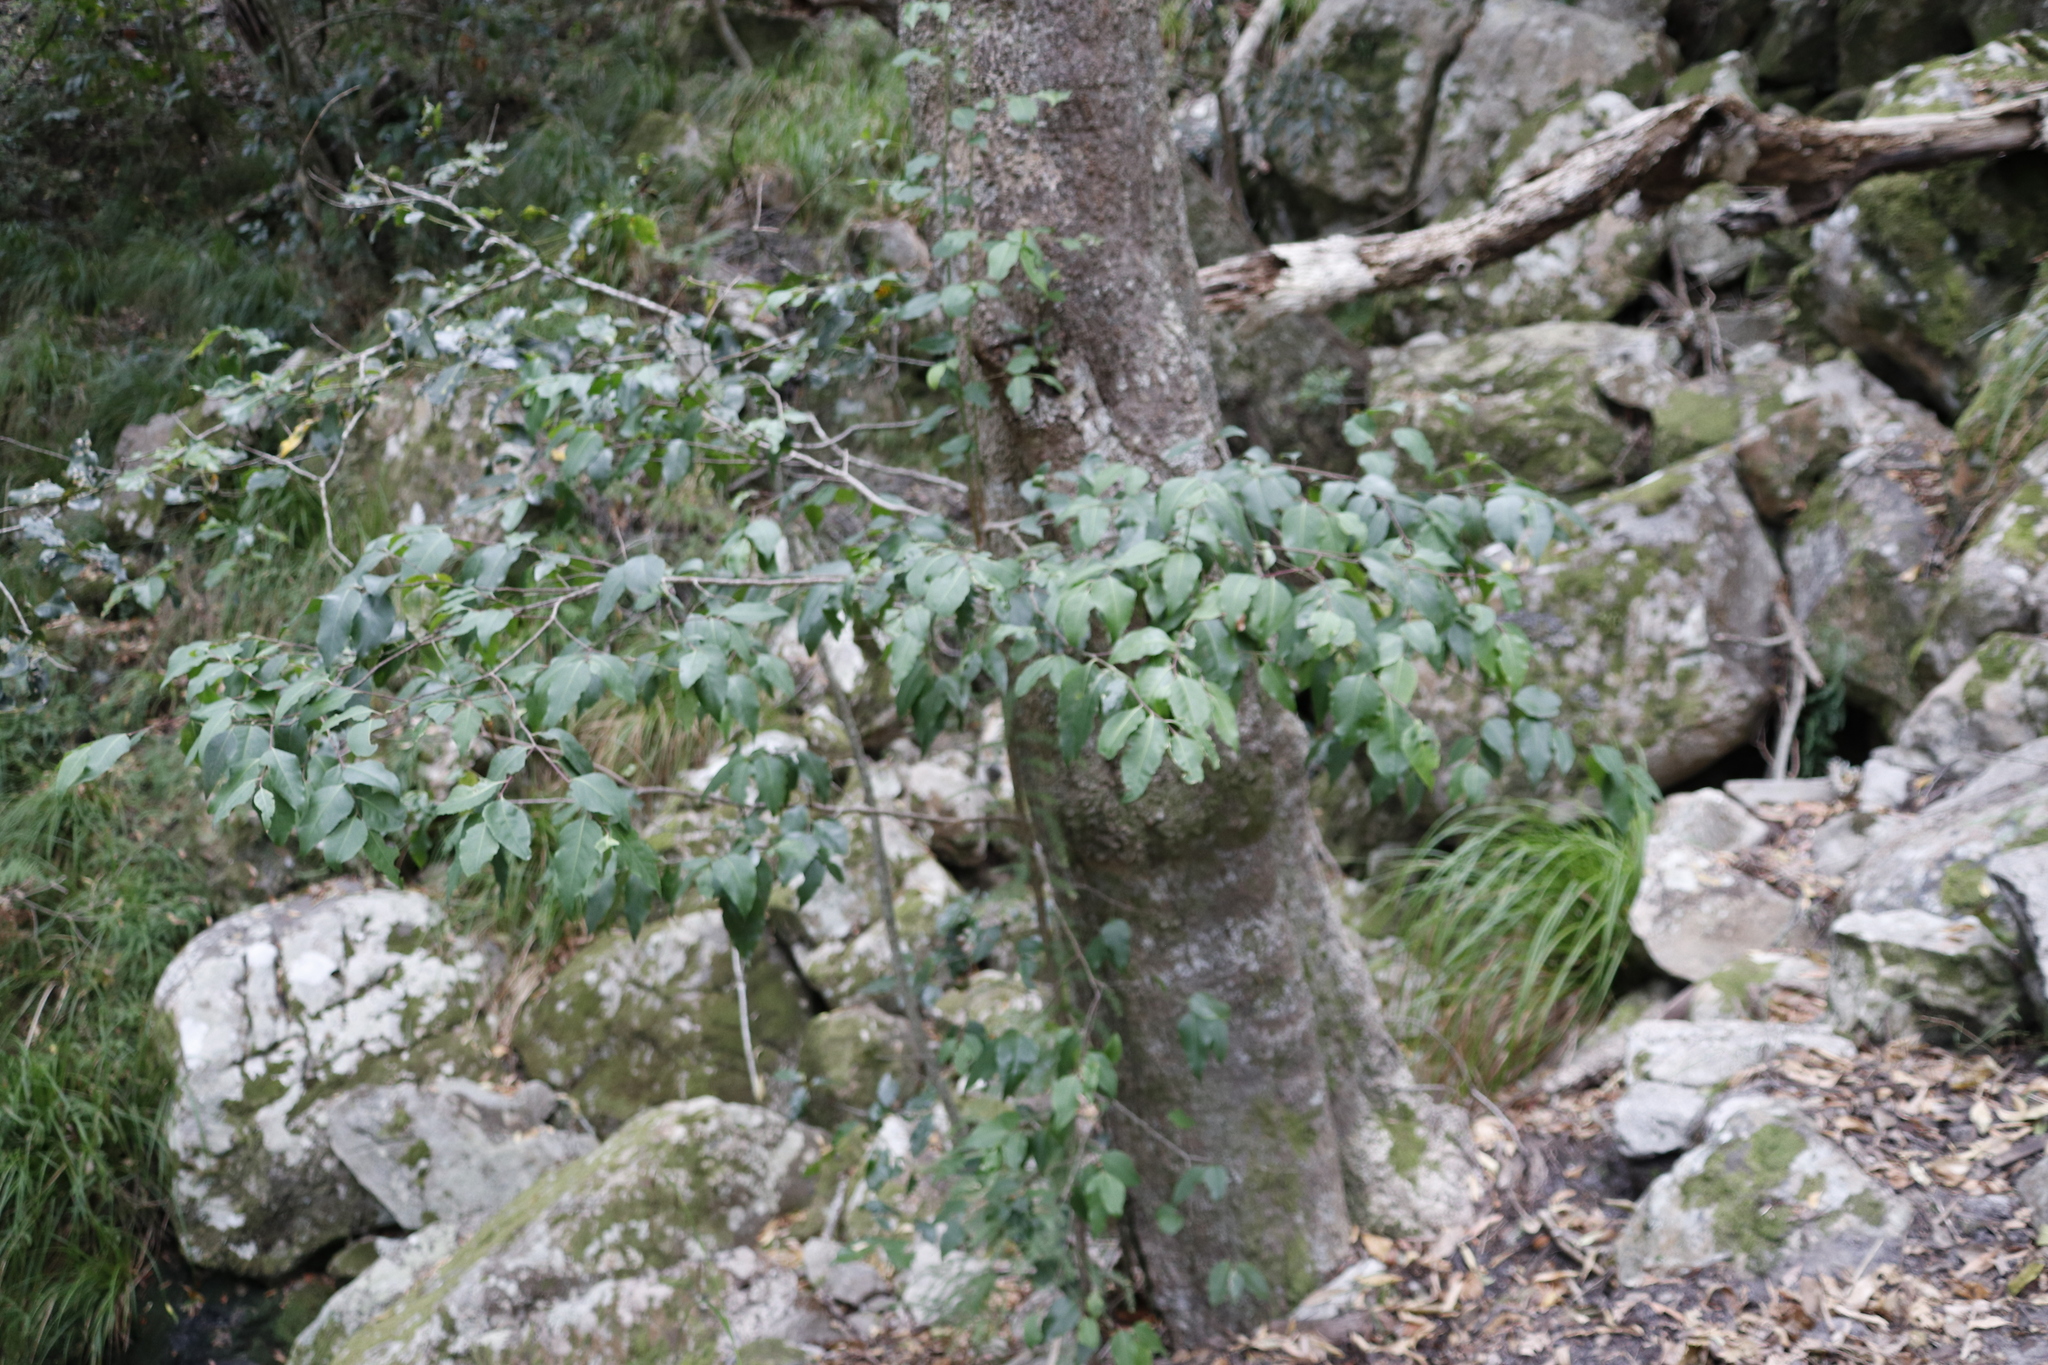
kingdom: Plantae
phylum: Tracheophyta
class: Magnoliopsida
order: Celastrales
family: Celastraceae
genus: Gymnosporia
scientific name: Gymnosporia acuminata
